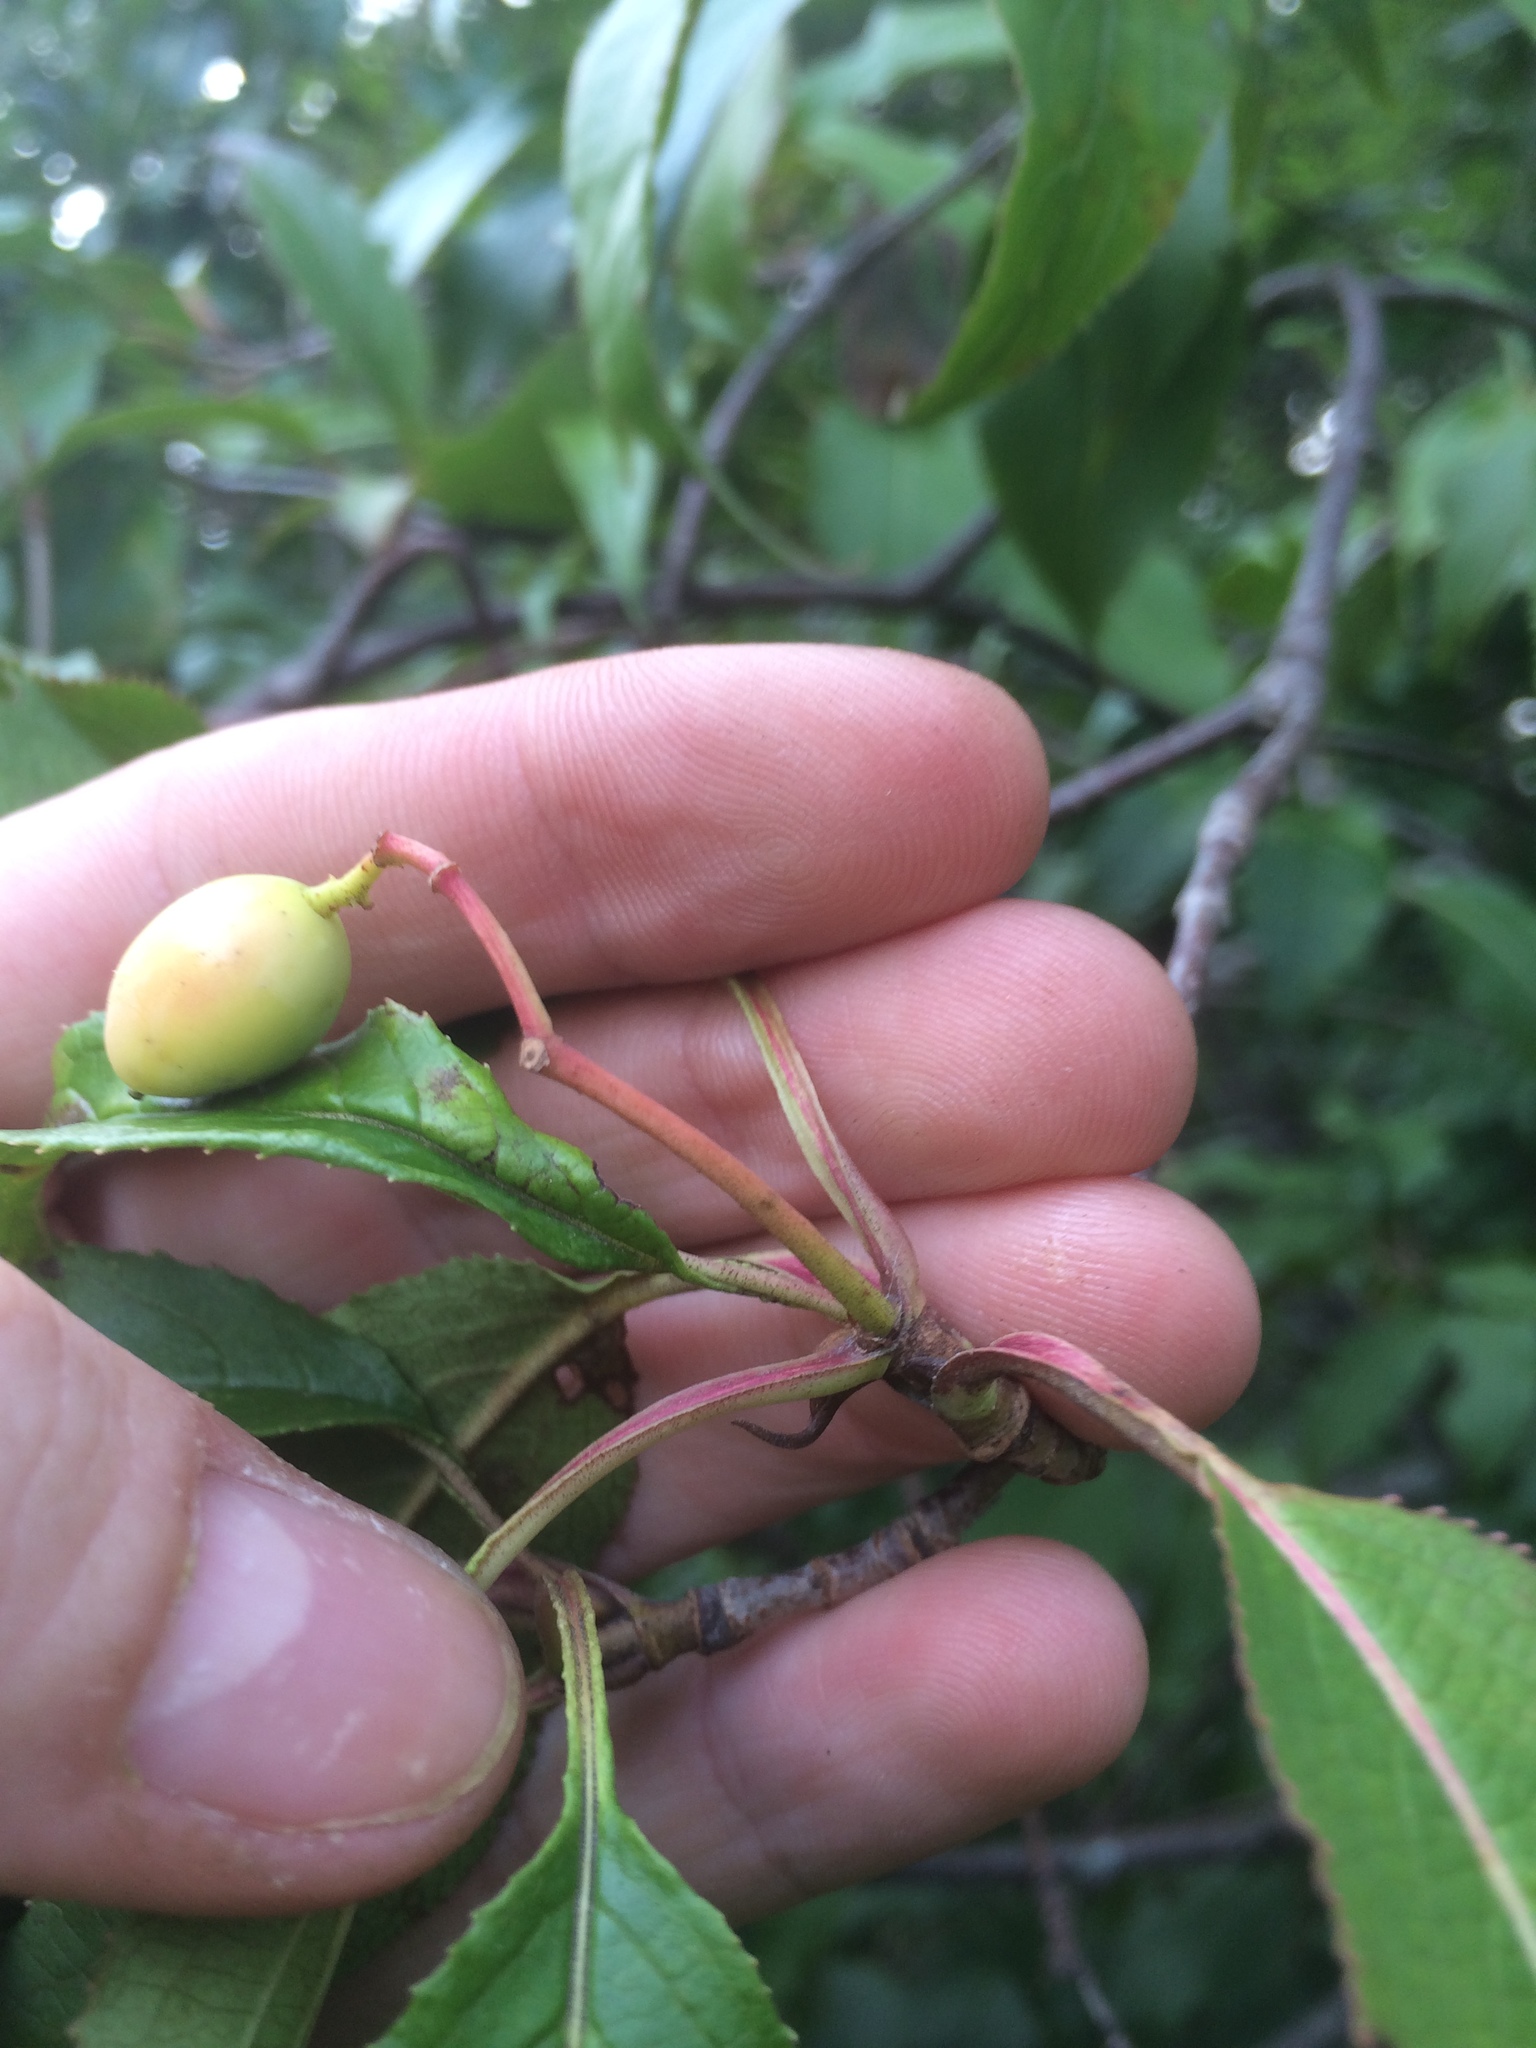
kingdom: Plantae
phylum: Tracheophyta
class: Magnoliopsida
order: Dipsacales
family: Viburnaceae
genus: Viburnum
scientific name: Viburnum lentago
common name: Black haw
